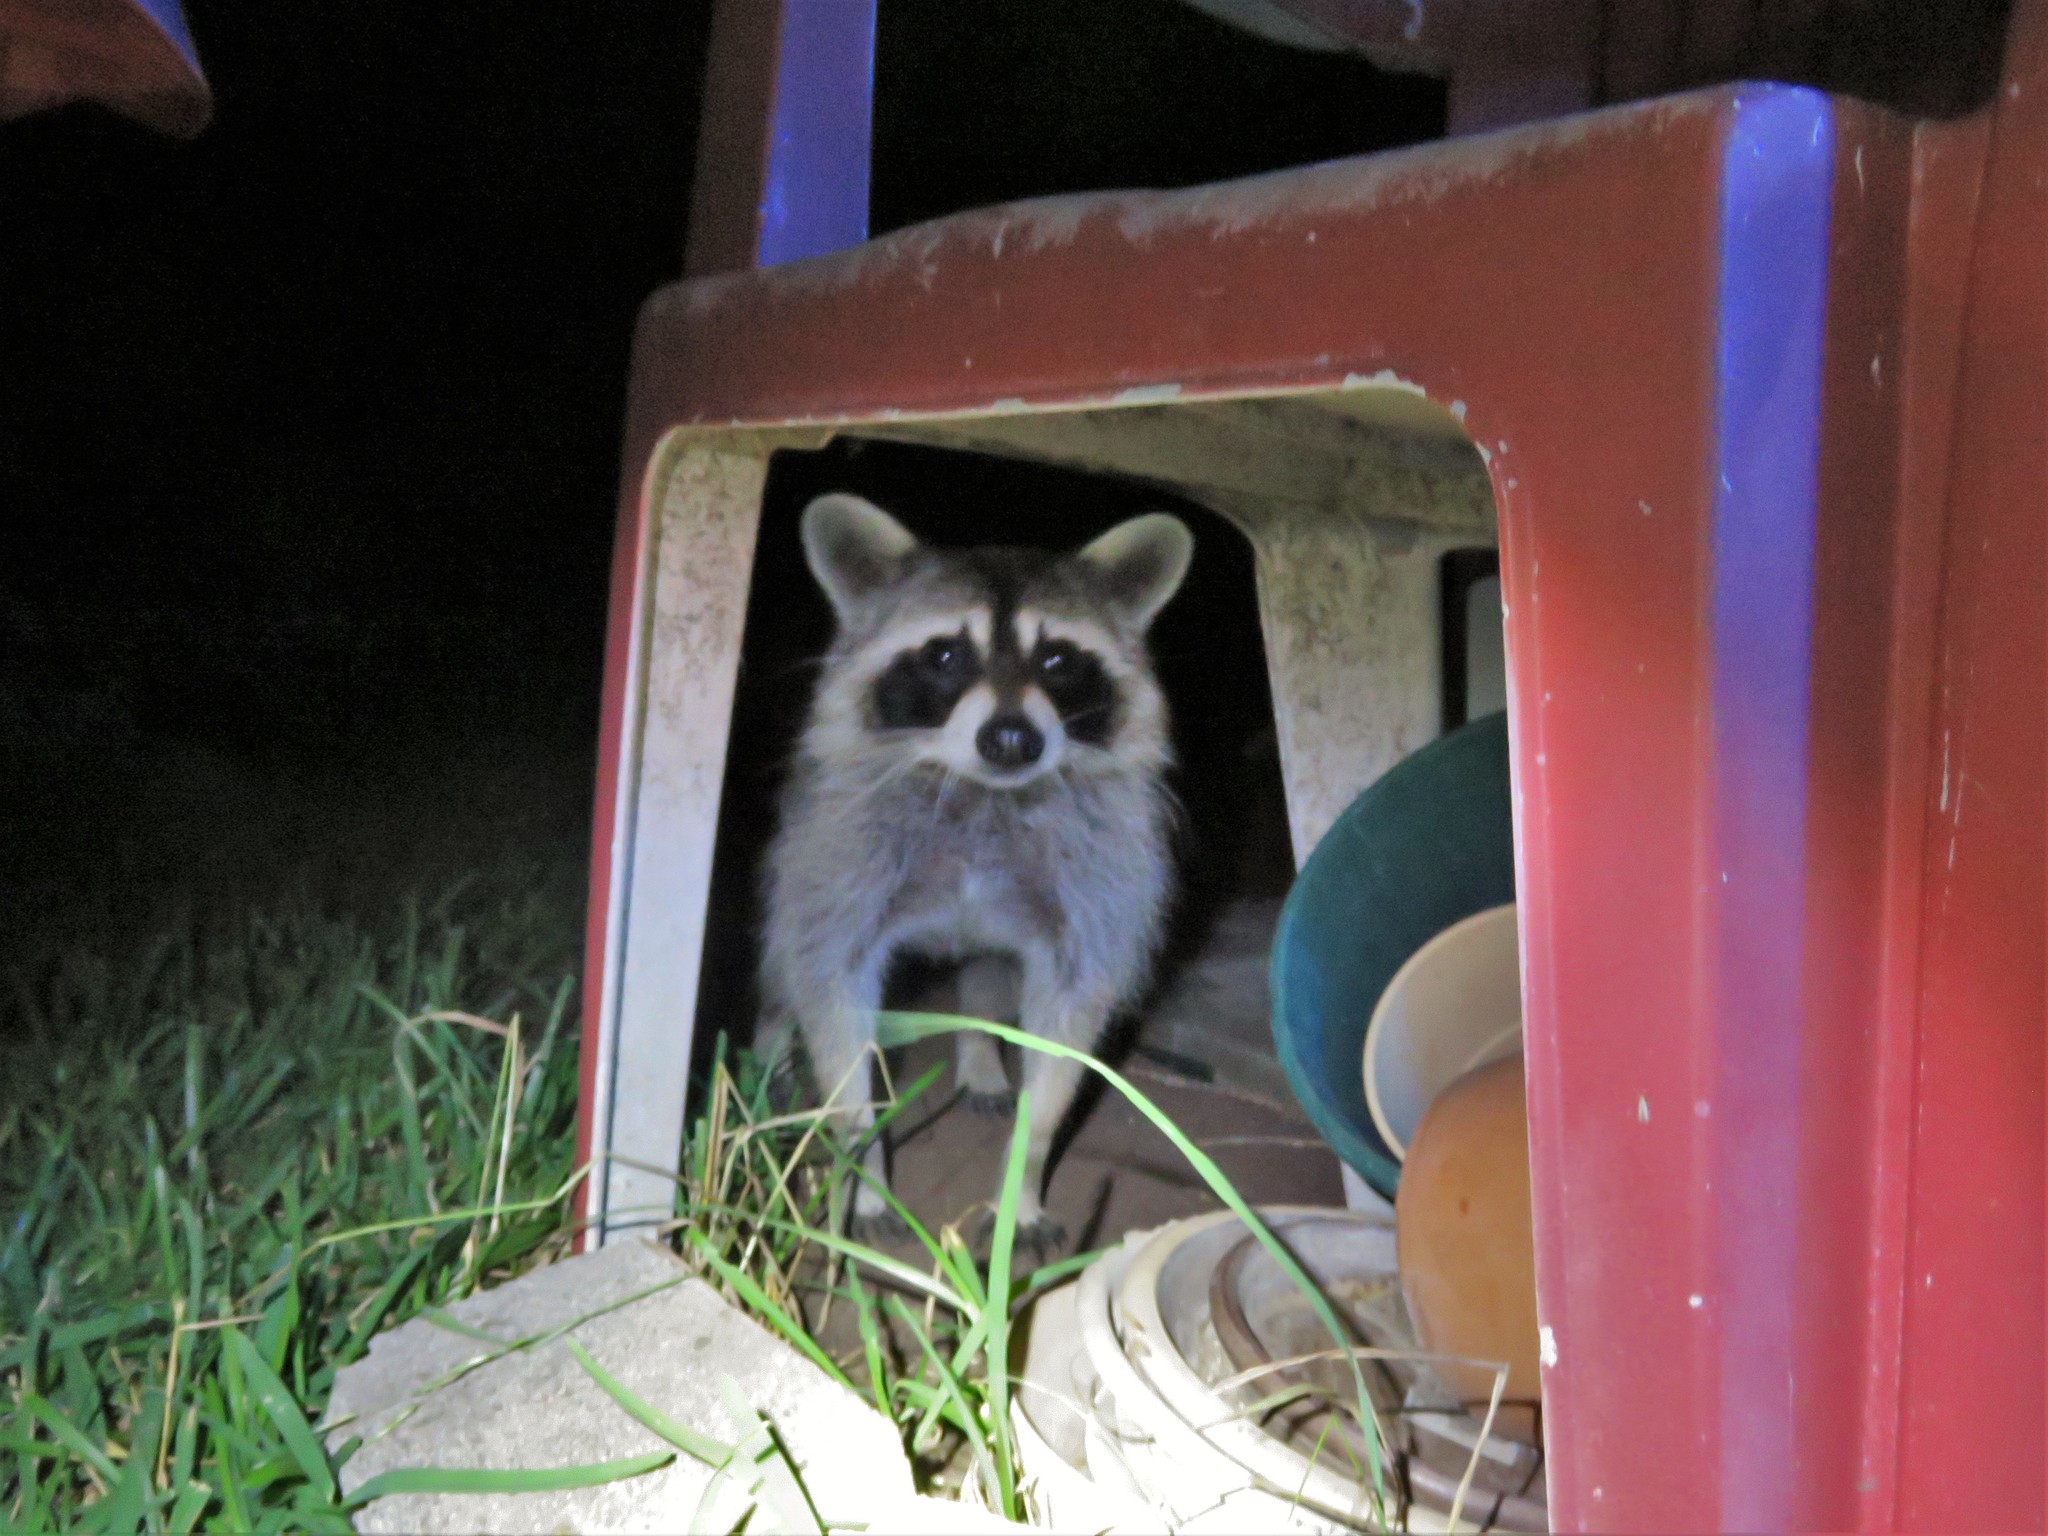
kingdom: Animalia
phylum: Chordata
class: Mammalia
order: Carnivora
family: Procyonidae
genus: Procyon
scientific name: Procyon lotor
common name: Raccoon
